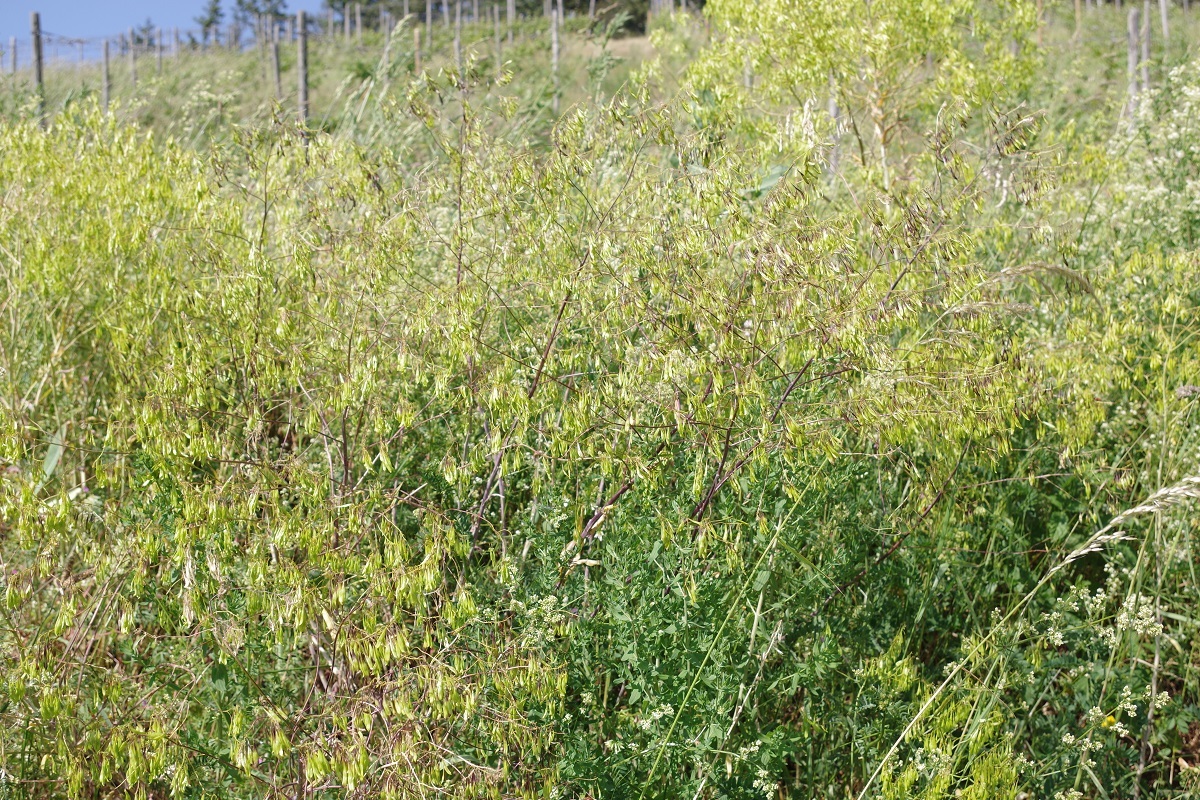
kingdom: Plantae
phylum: Tracheophyta
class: Magnoliopsida
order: Brassicales
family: Brassicaceae
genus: Isatis
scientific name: Isatis tinctoria
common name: Woad
